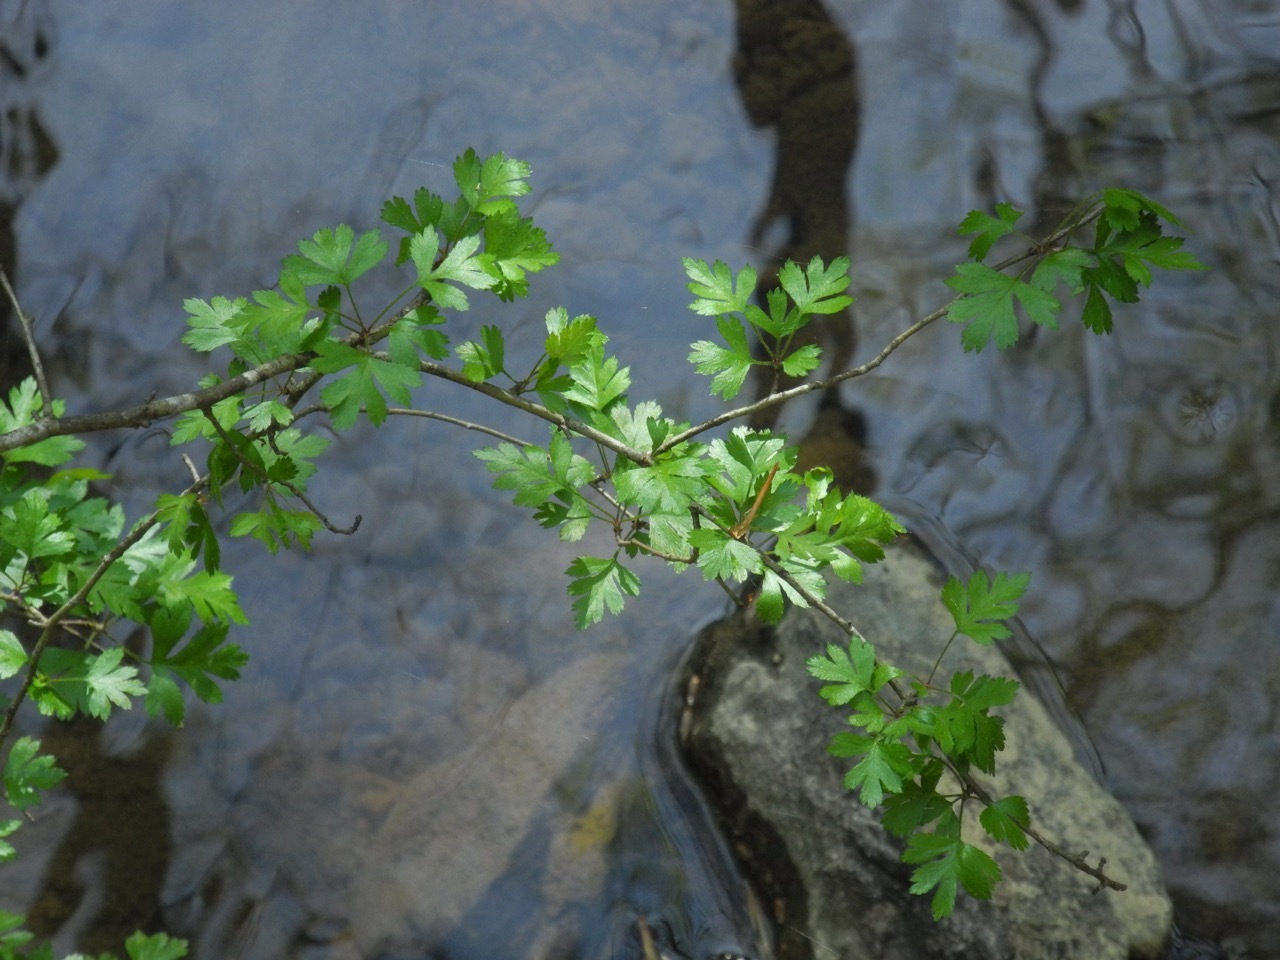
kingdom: Plantae
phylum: Tracheophyta
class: Magnoliopsida
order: Rosales
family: Rosaceae
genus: Crataegus
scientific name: Crataegus marshallii
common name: Parsley-hawthorn
